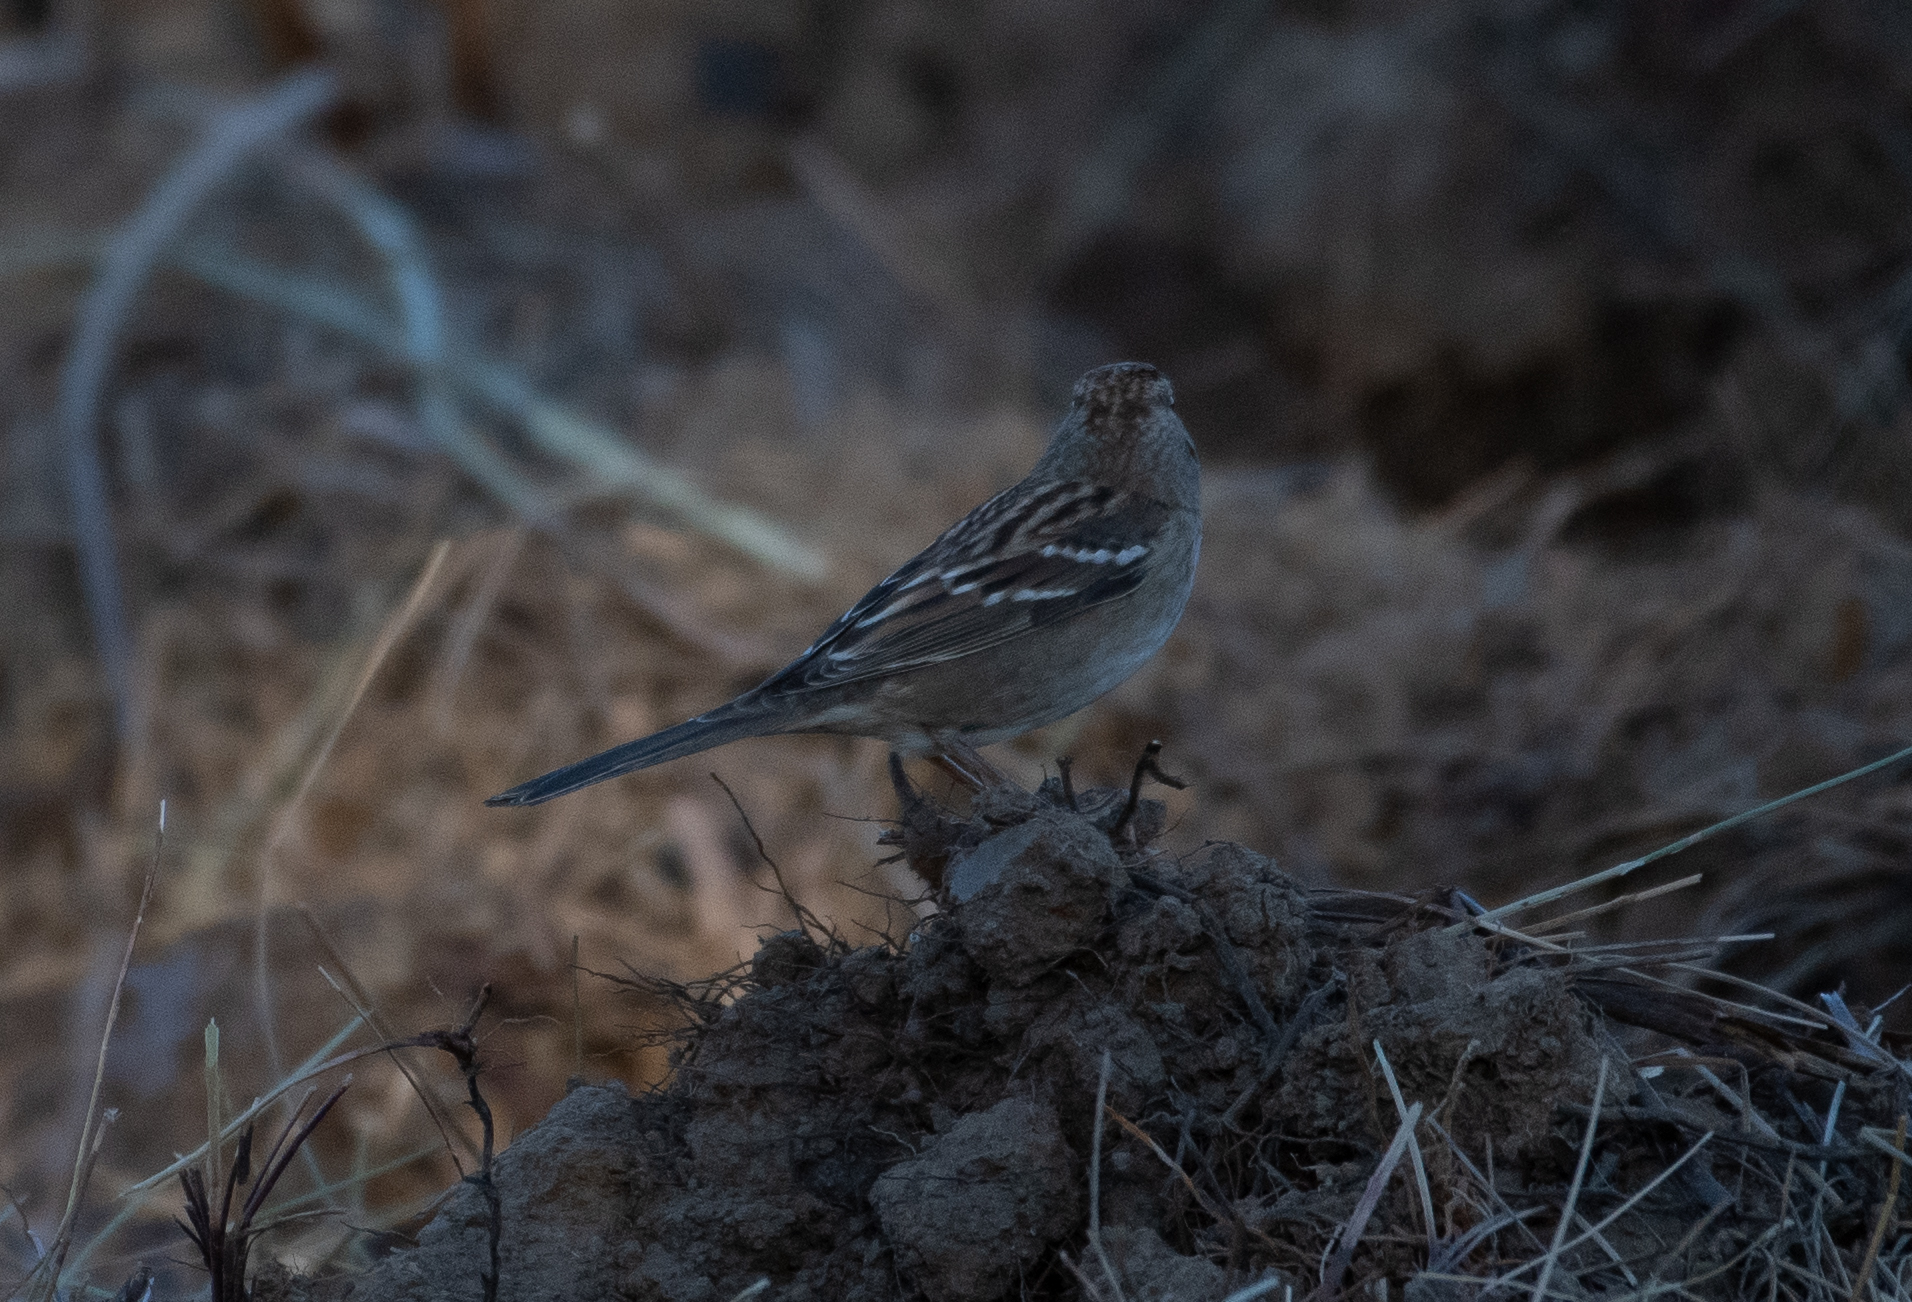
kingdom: Animalia
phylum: Chordata
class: Aves
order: Passeriformes
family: Passerellidae
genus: Zonotrichia
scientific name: Zonotrichia atricapilla
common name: Golden-crowned sparrow
